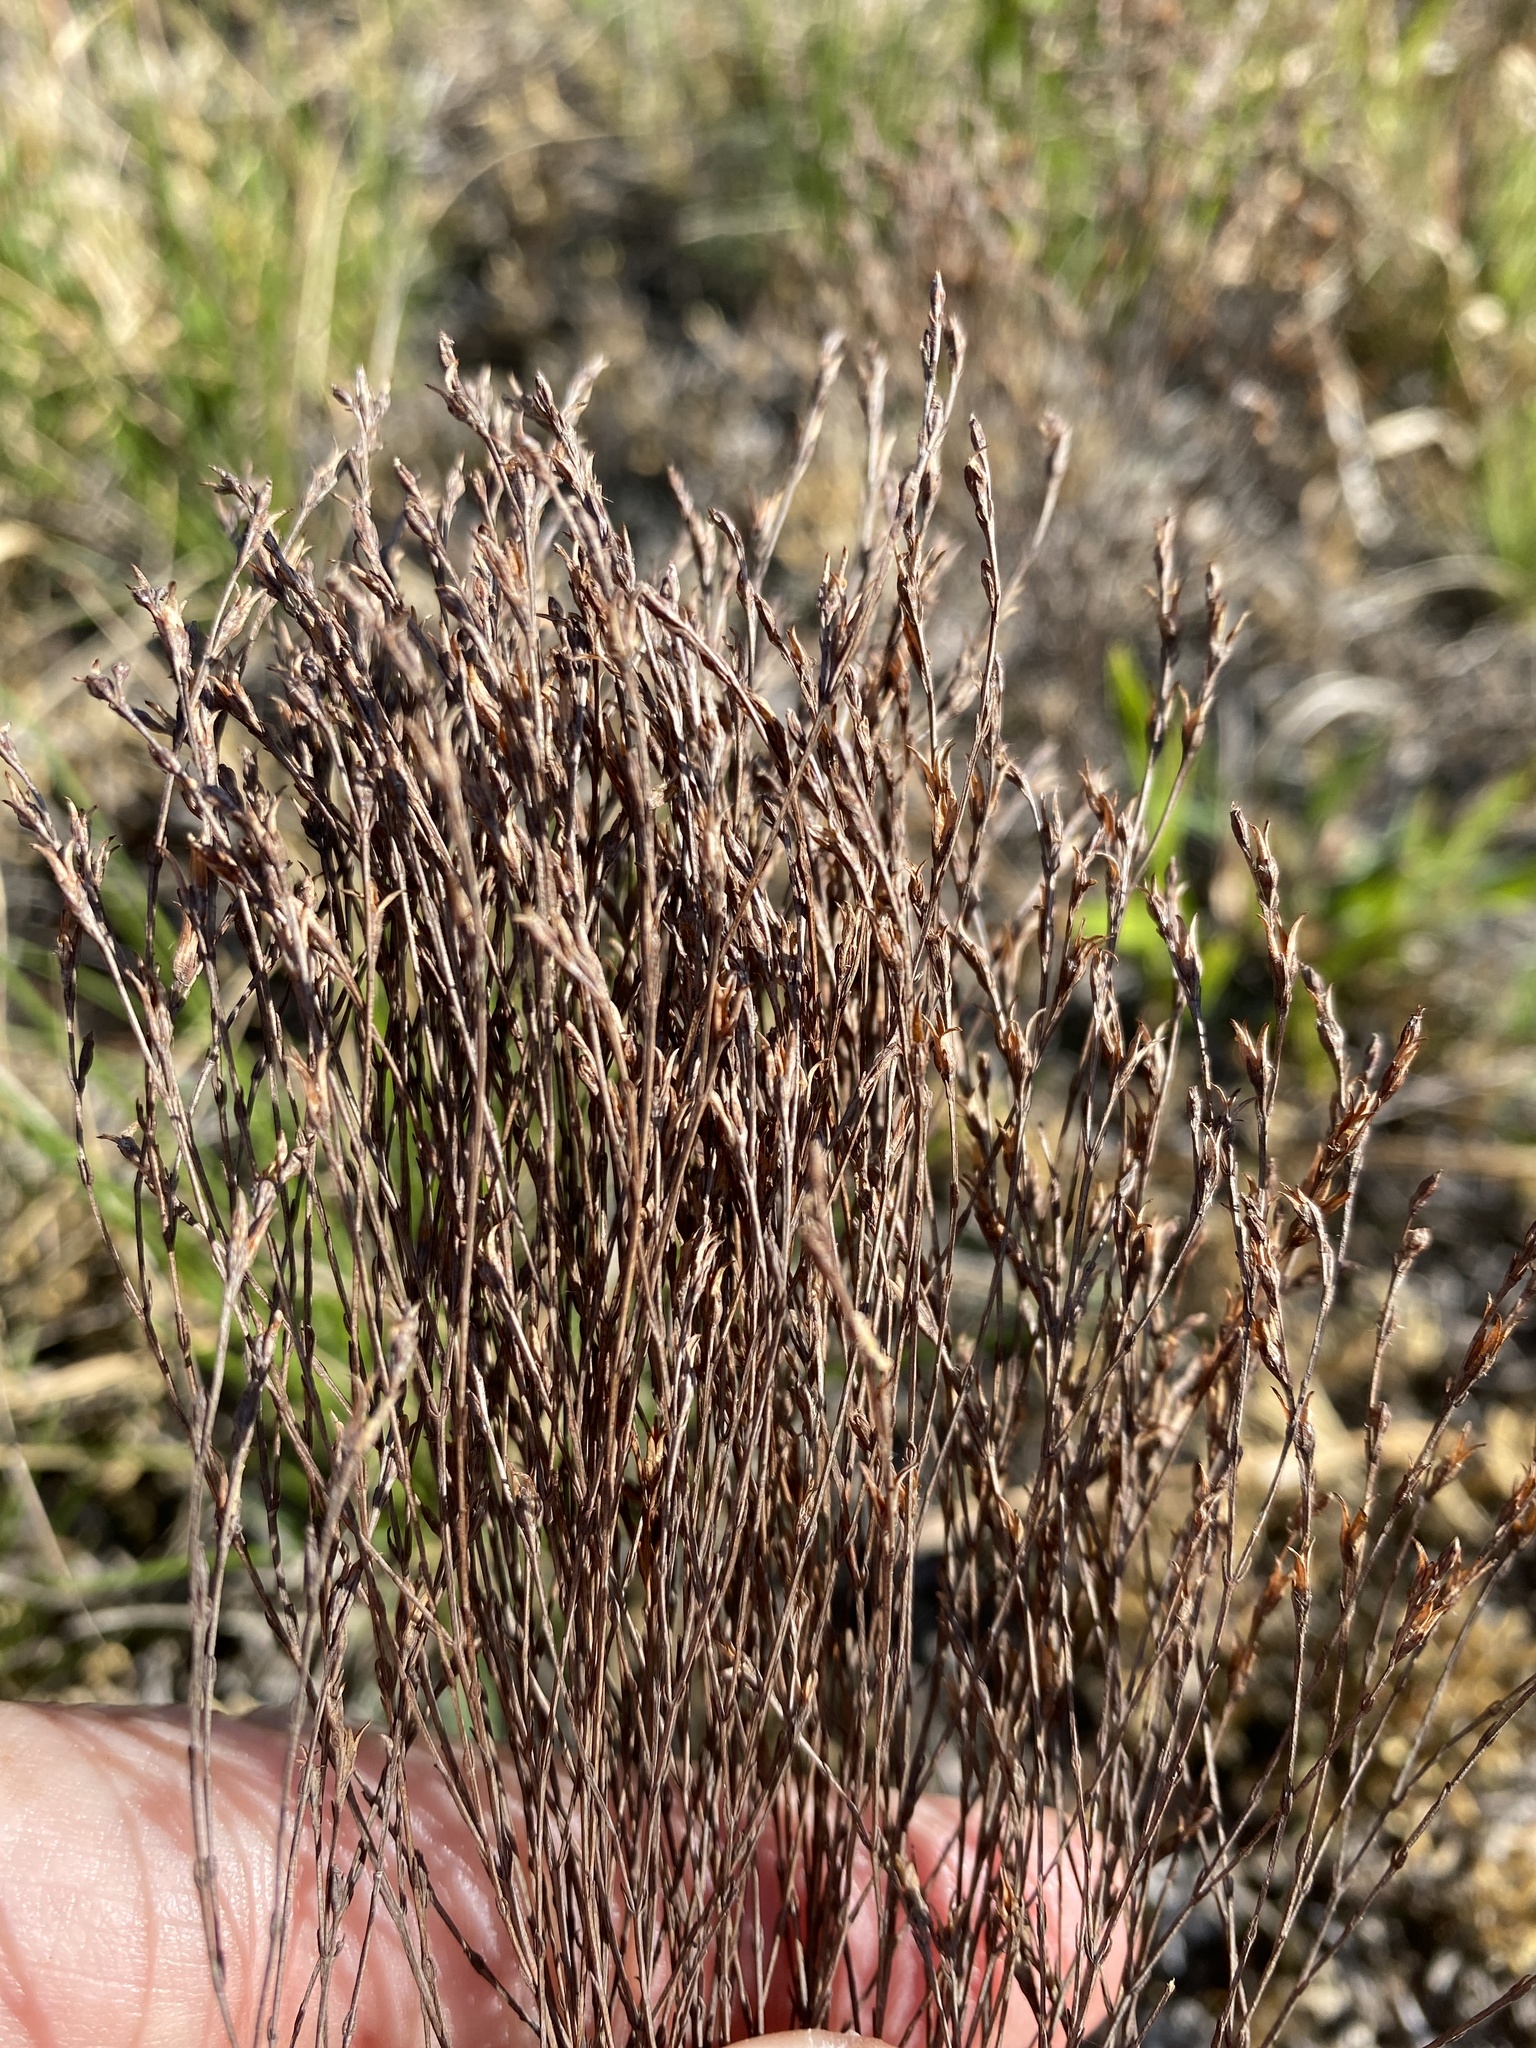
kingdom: Plantae
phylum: Tracheophyta
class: Magnoliopsida
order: Malpighiales
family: Hypericaceae
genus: Hypericum
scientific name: Hypericum gentianoides
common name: Gentian-leaved st. john's-wort
